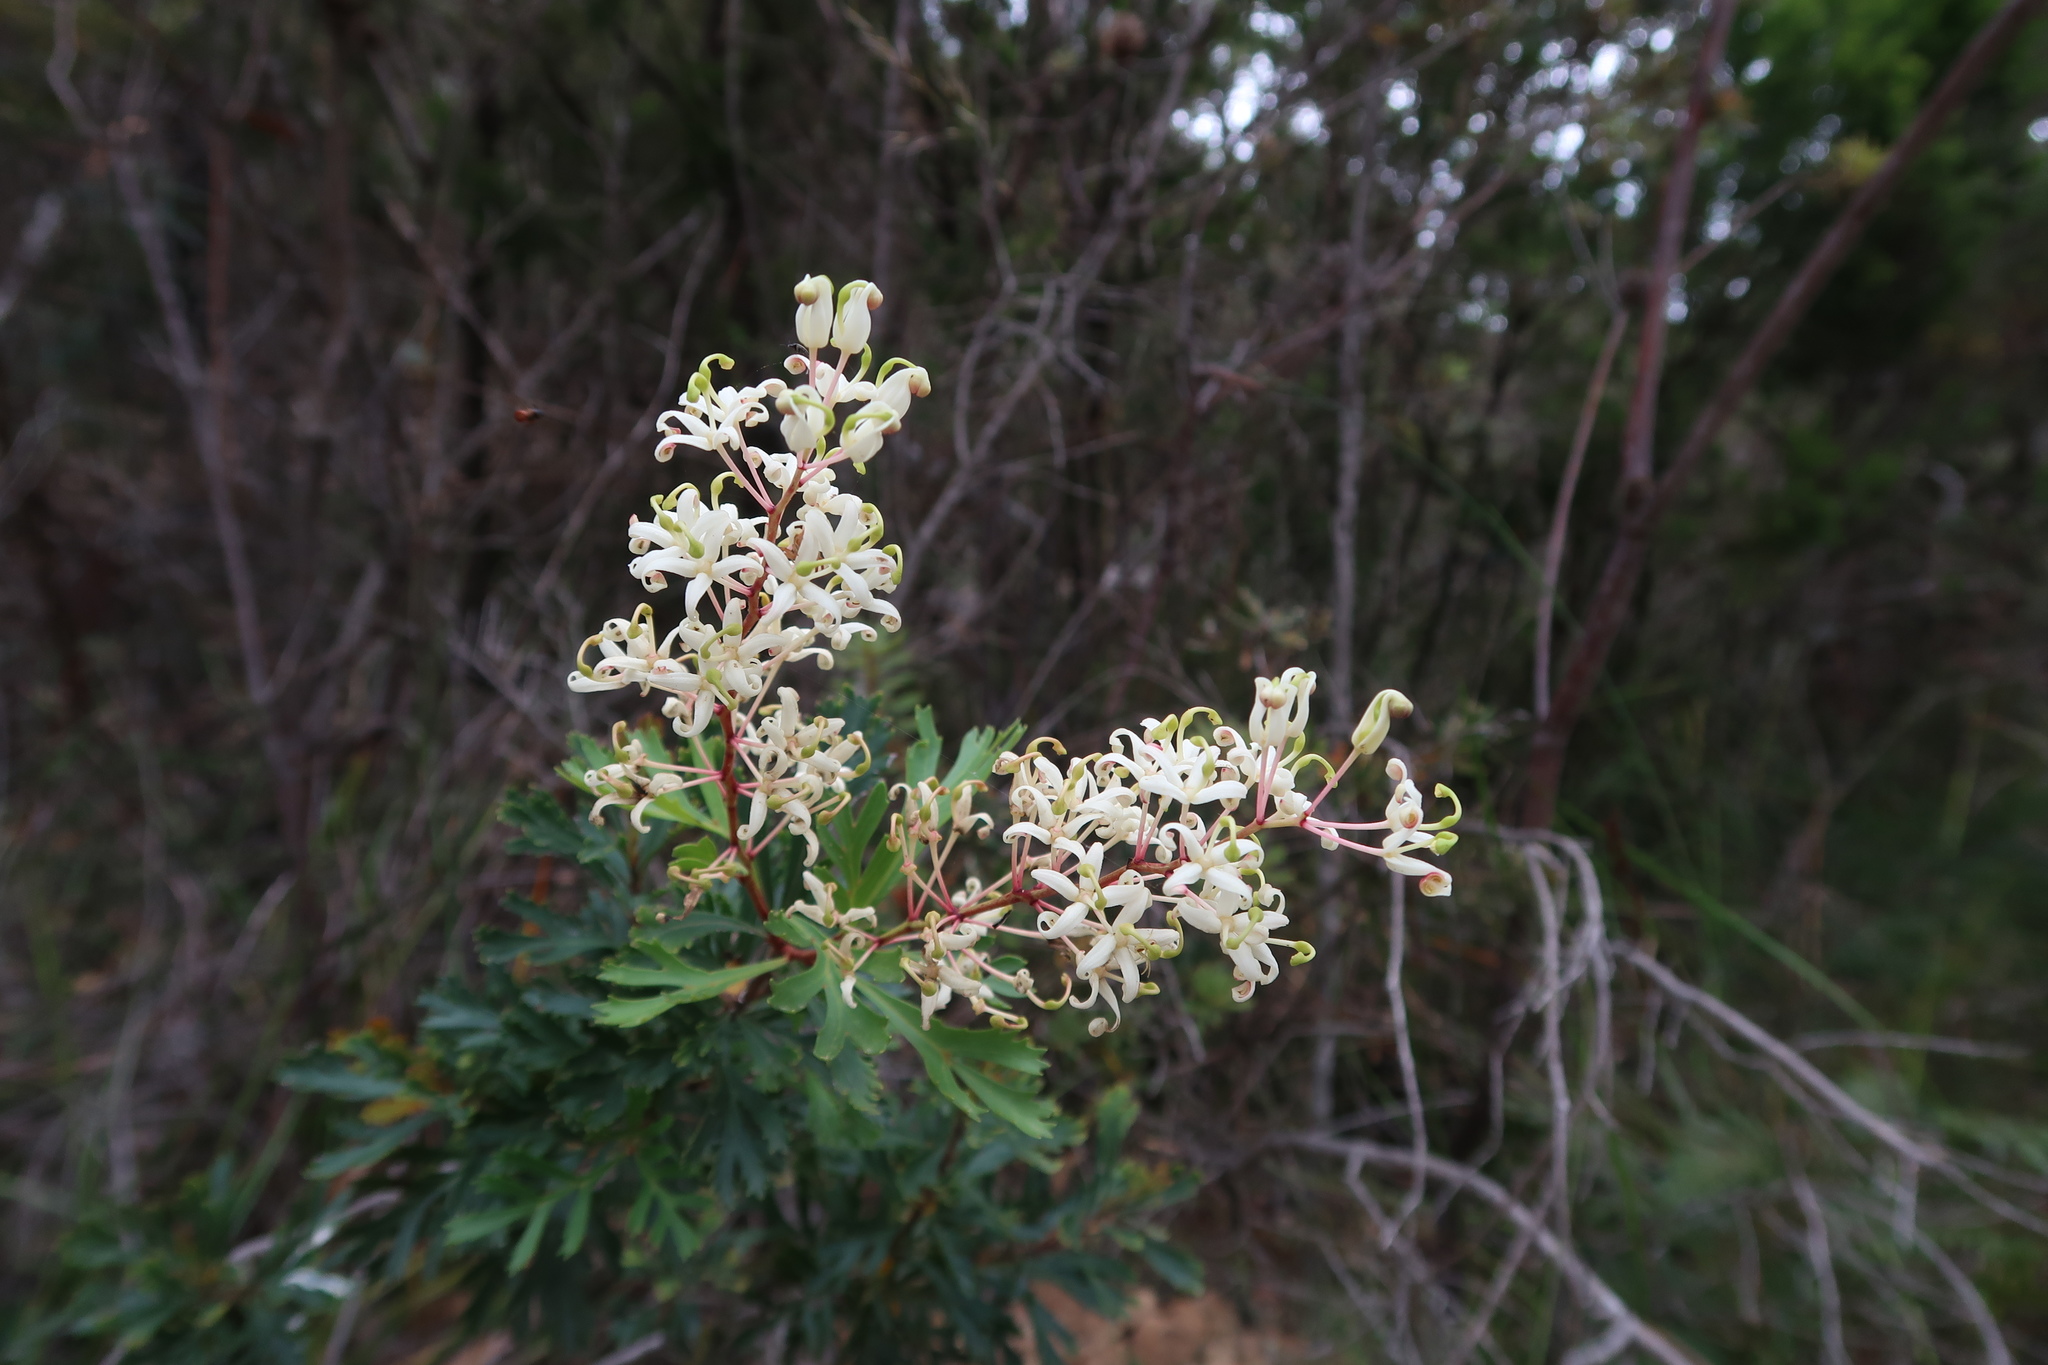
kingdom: Plantae
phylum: Tracheophyta
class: Magnoliopsida
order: Proteales
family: Proteaceae
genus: Lomatia
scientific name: Lomatia tinctoria
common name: Guitar plant
